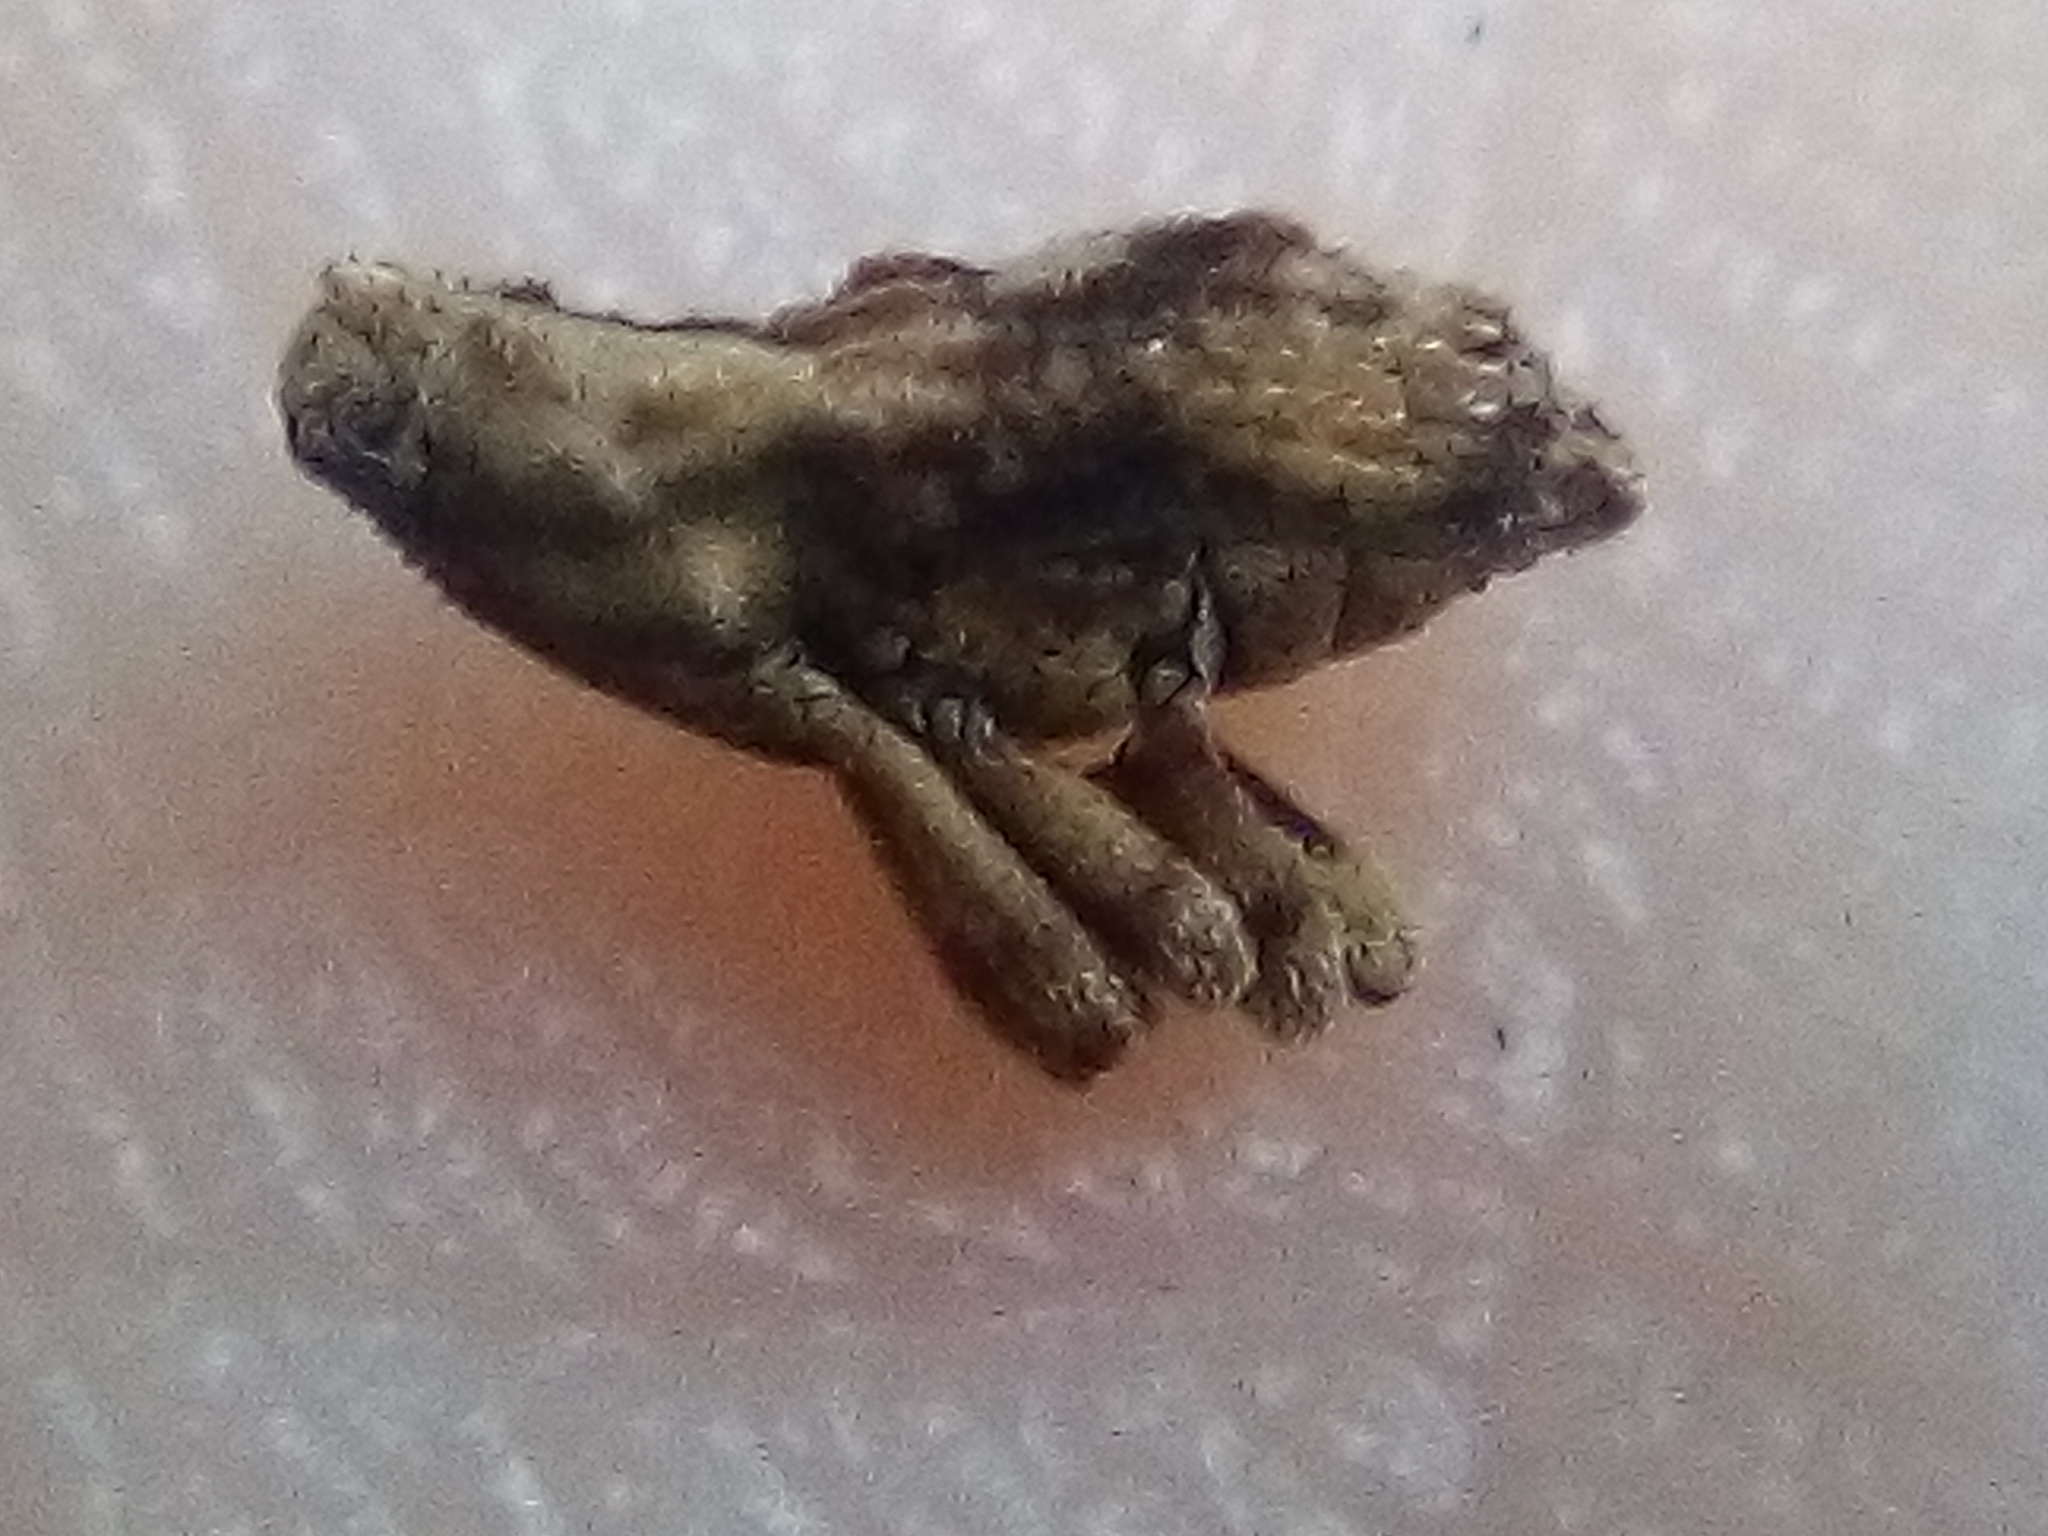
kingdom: Animalia
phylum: Arthropoda
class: Insecta
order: Coleoptera
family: Curculionidae
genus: Mecistostylus
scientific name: Mecistostylus douei
